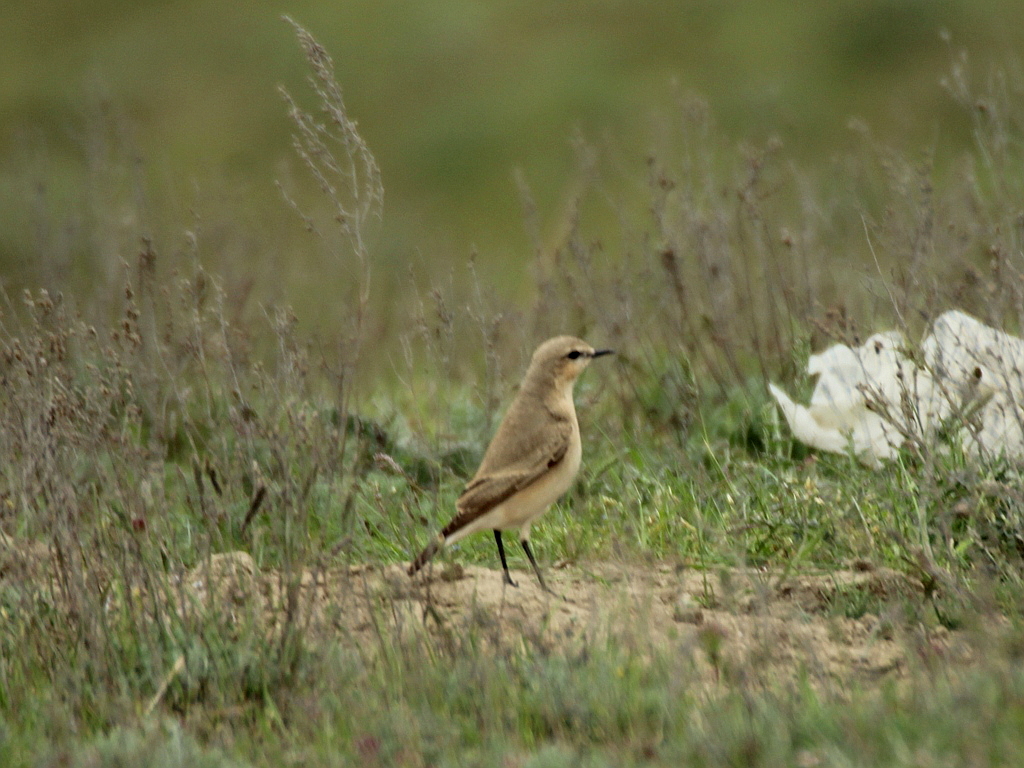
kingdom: Animalia
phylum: Chordata
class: Aves
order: Passeriformes
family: Muscicapidae
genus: Oenanthe
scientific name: Oenanthe isabellina
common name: Isabelline wheatear
